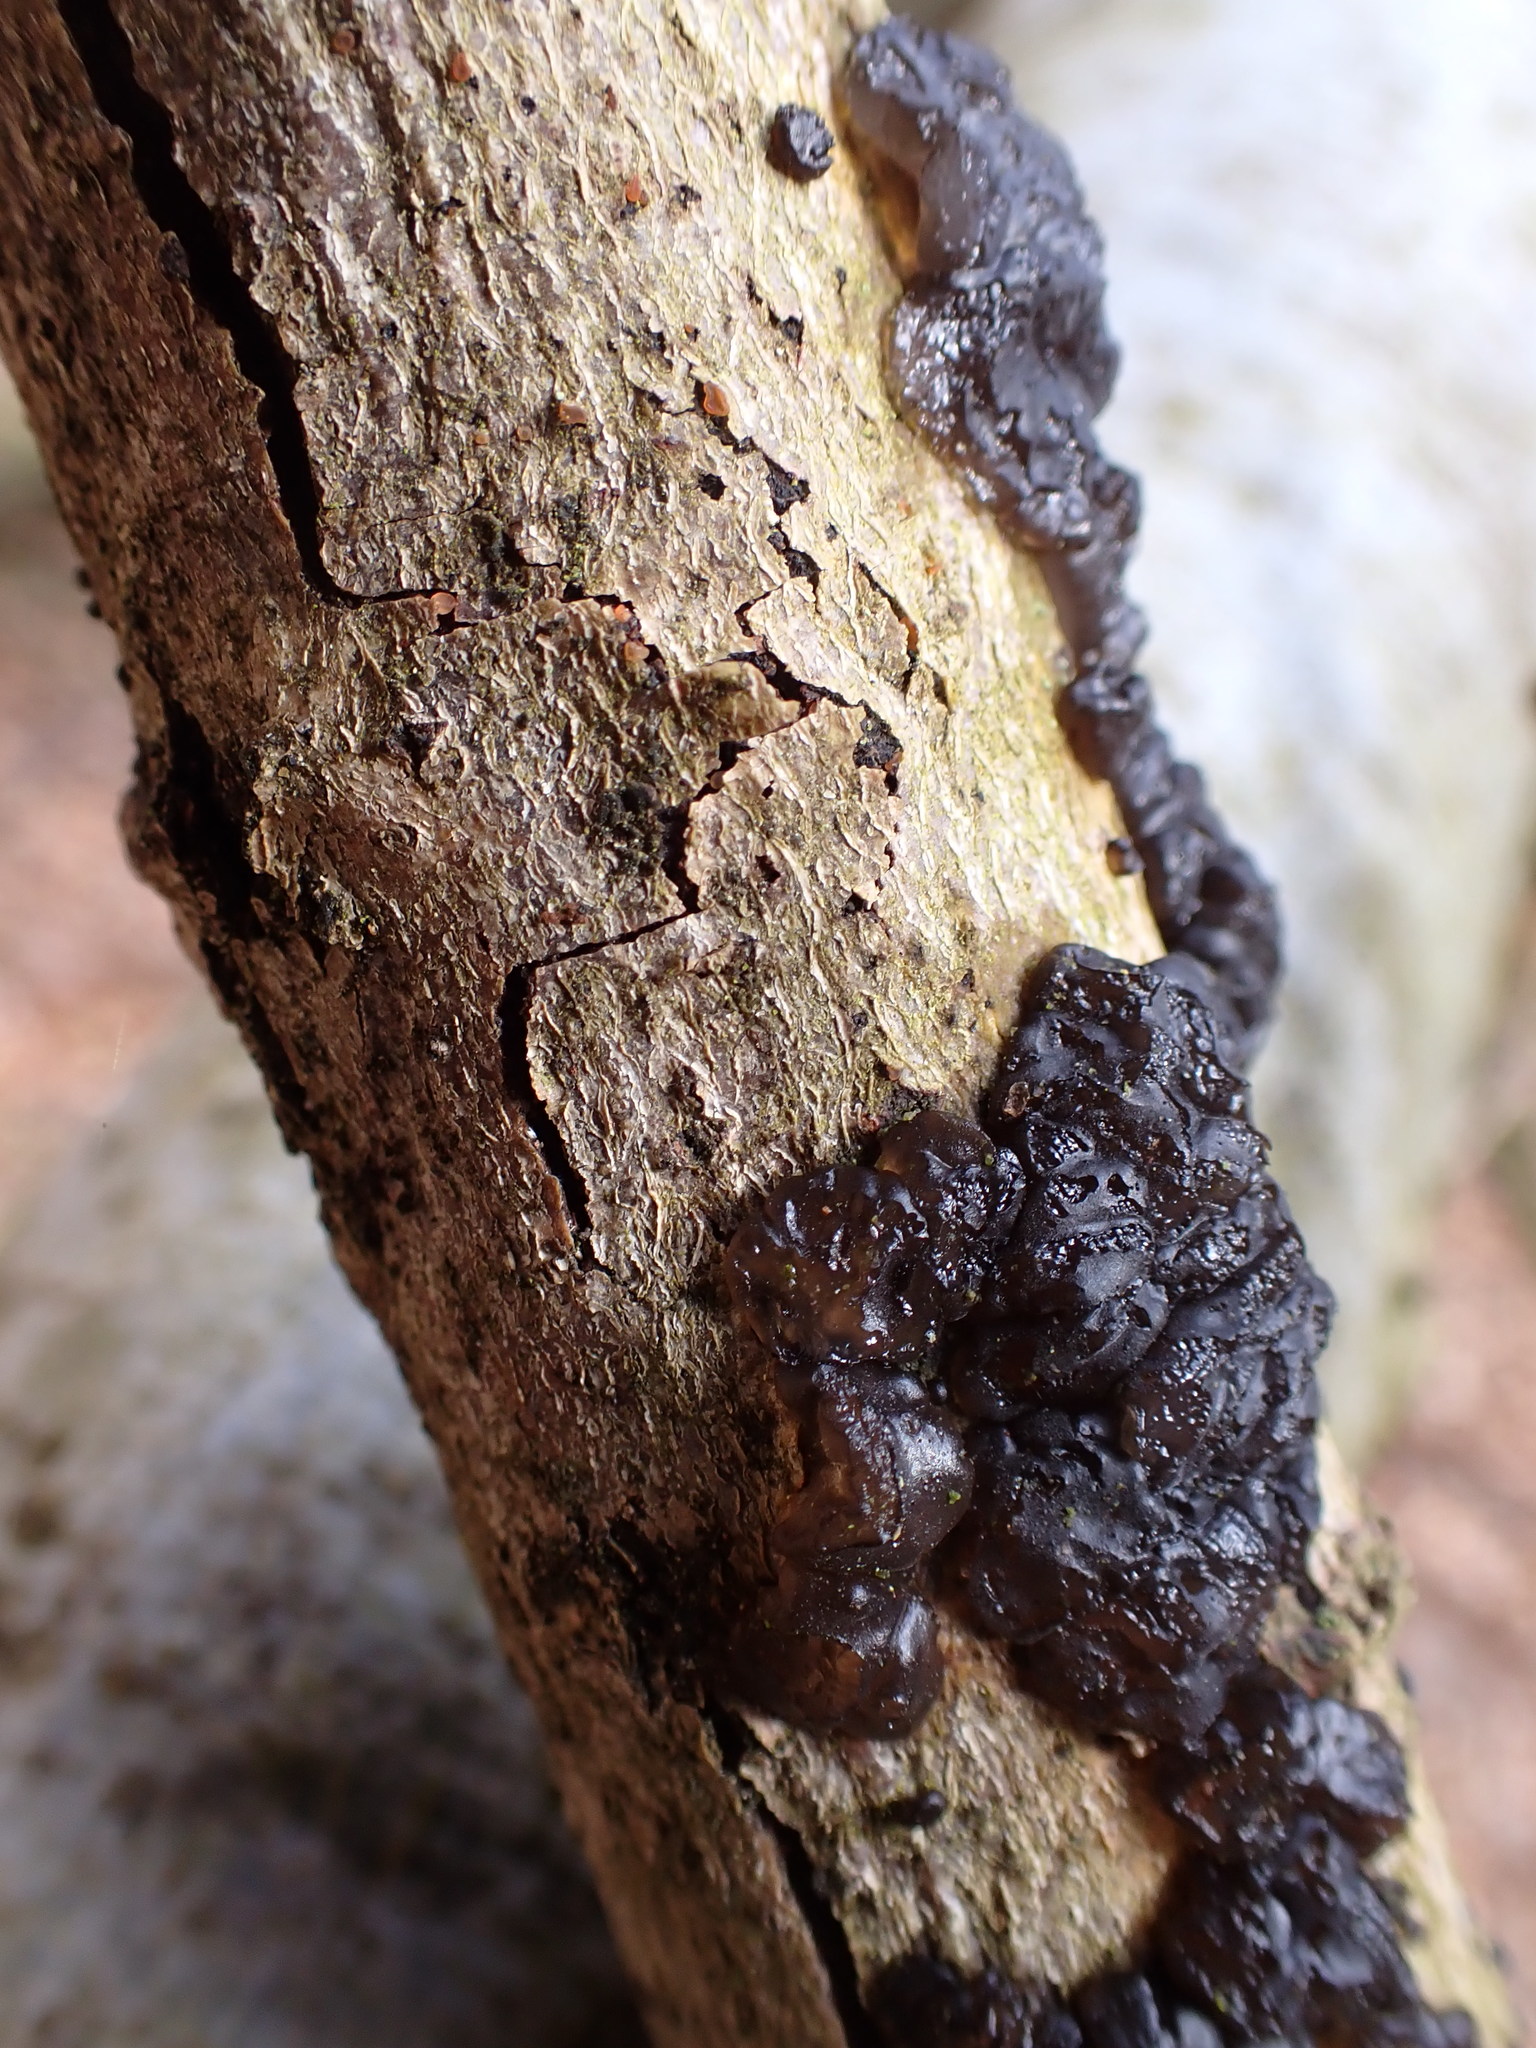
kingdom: Fungi
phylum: Basidiomycota
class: Agaricomycetes
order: Auriculariales
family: Auriculariaceae
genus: Exidia
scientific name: Exidia glandulosa
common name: Witches' butter
